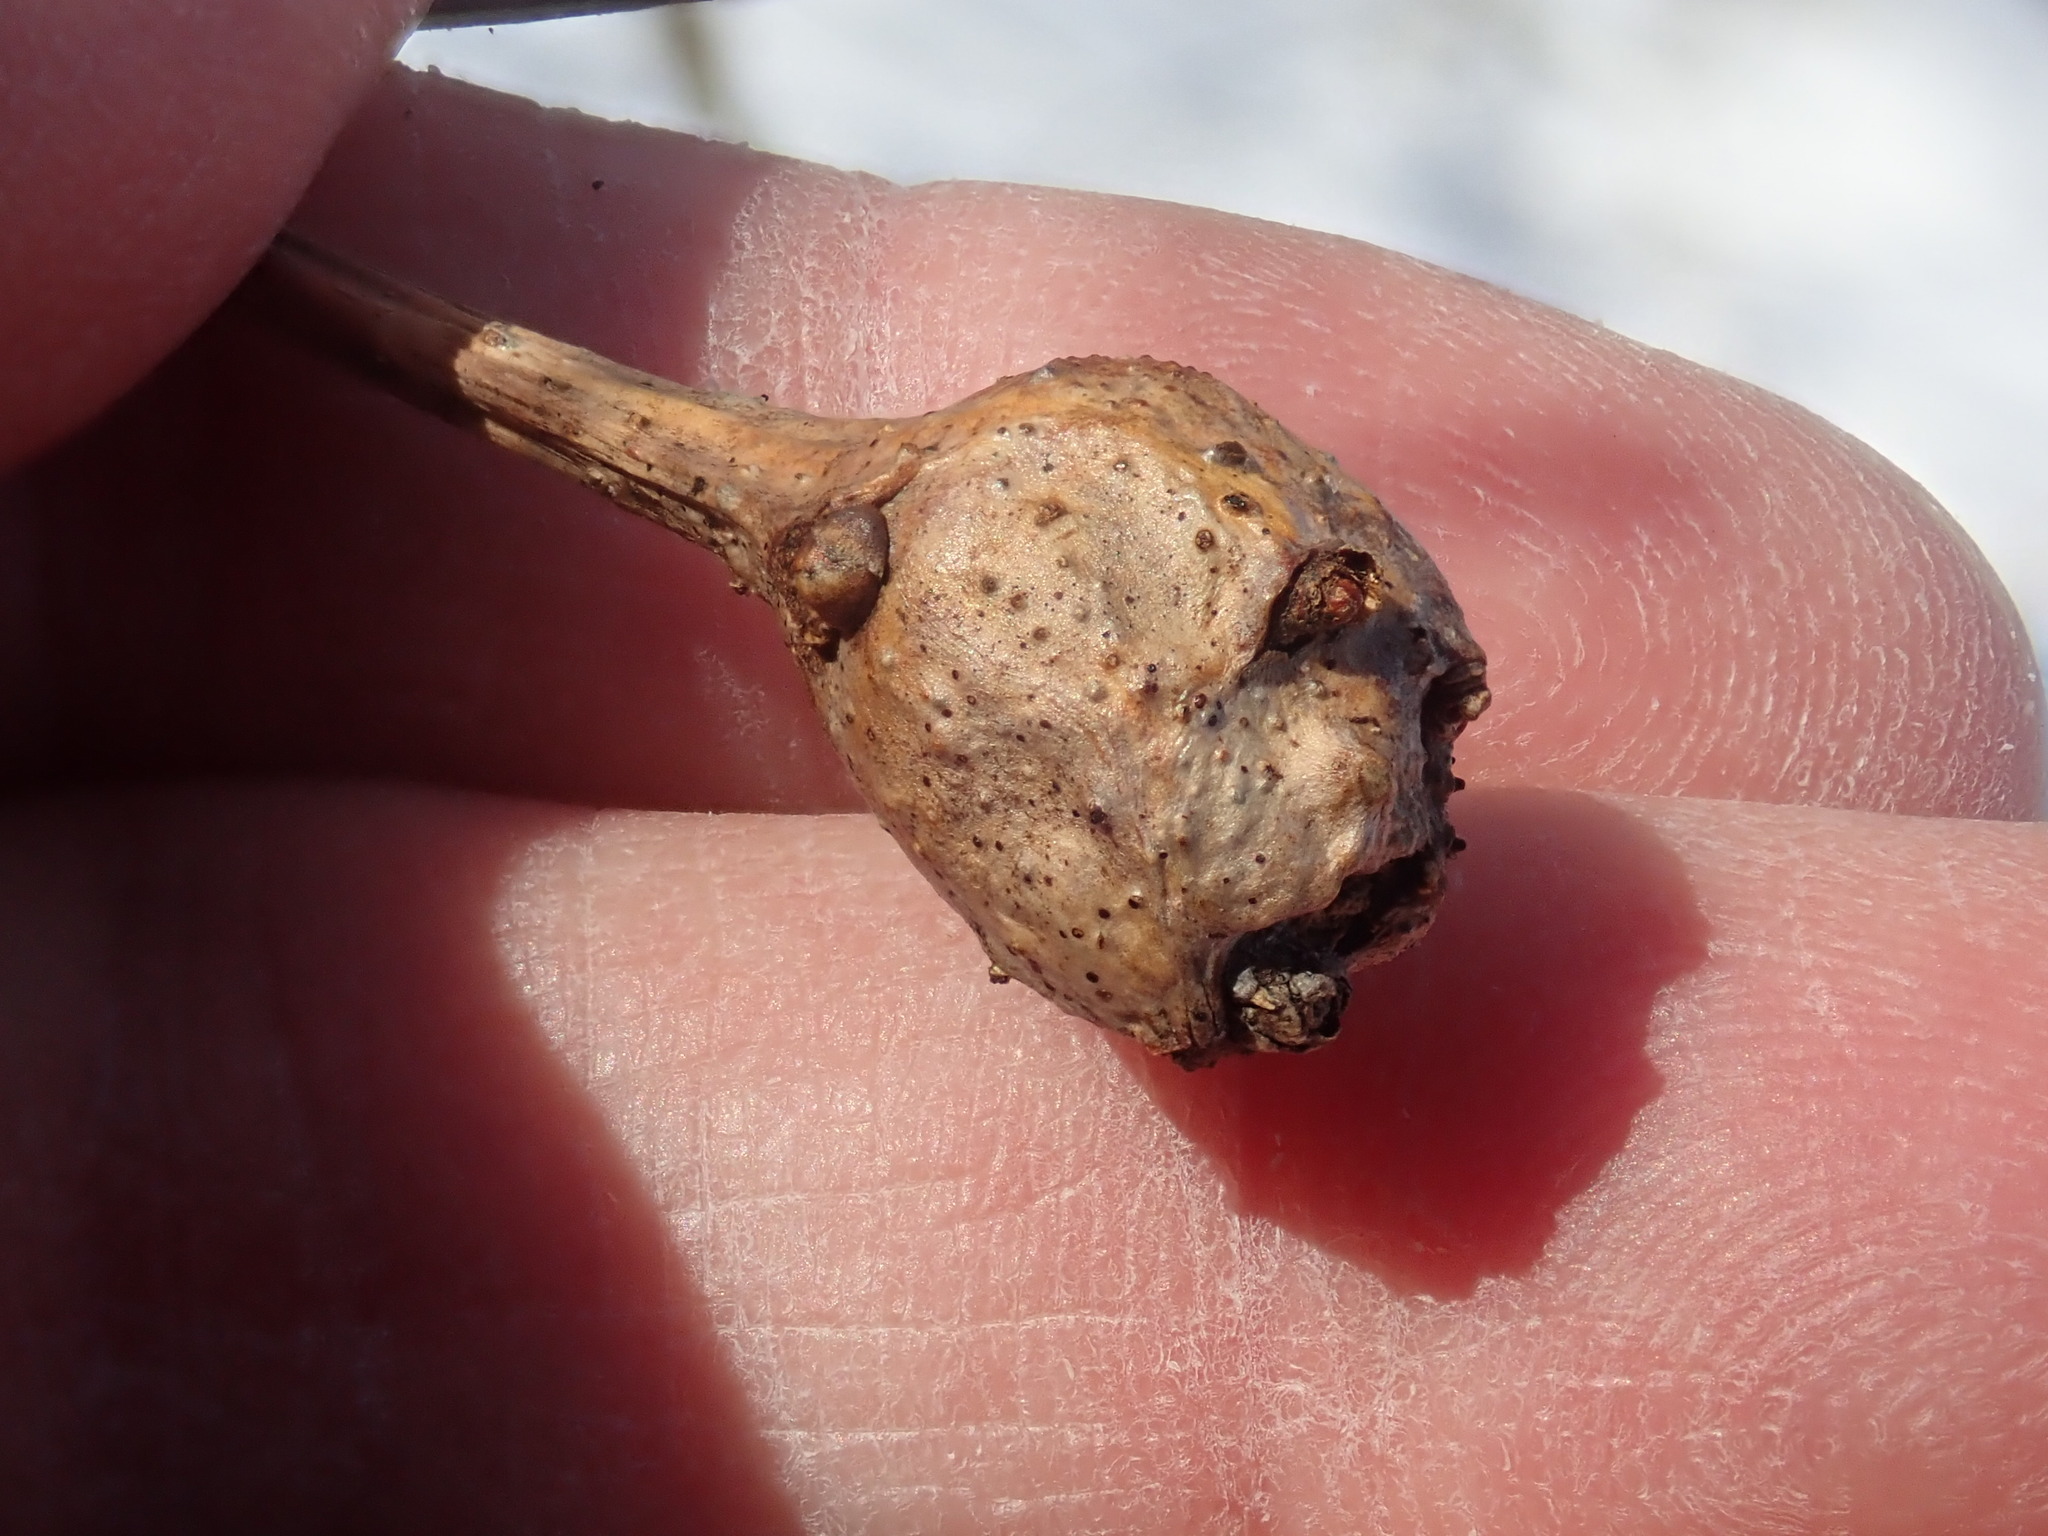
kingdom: Animalia
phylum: Arthropoda
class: Insecta
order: Hymenoptera
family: Cynipidae
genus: Callirhytis
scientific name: Callirhytis clavula
